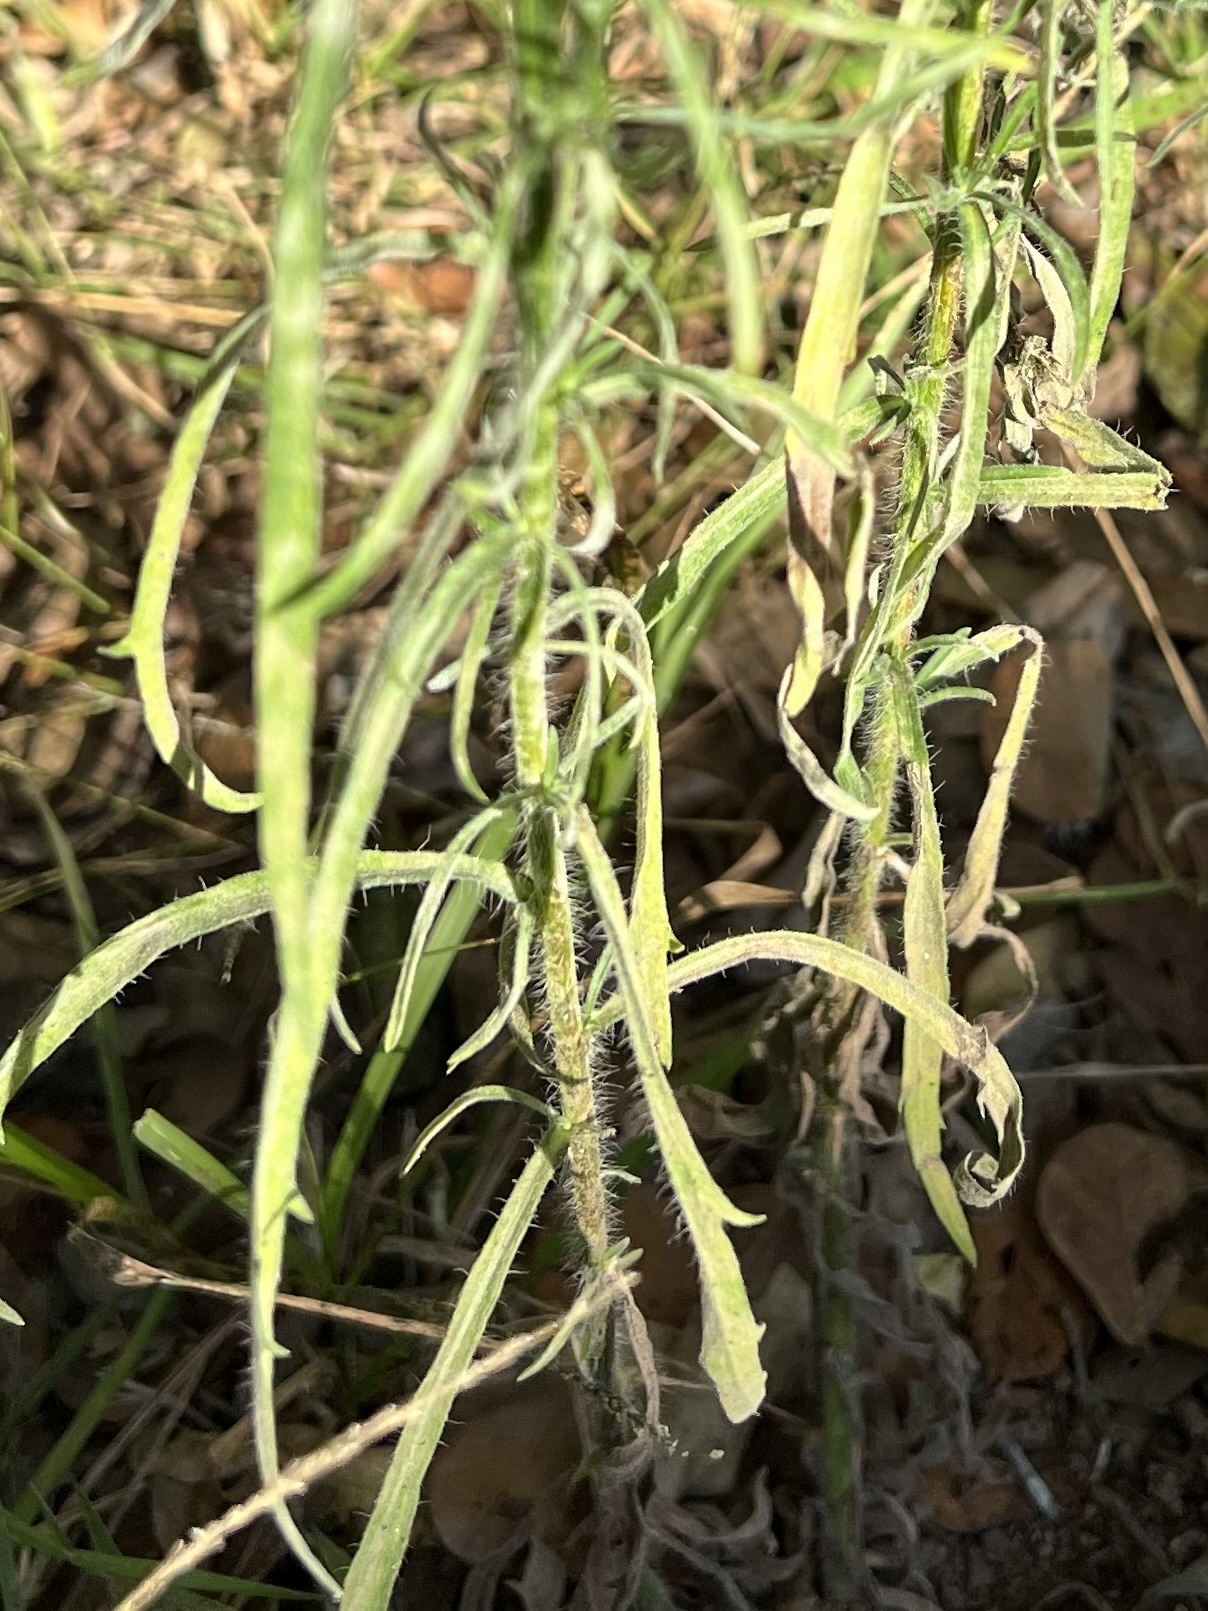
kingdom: Plantae
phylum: Tracheophyta
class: Magnoliopsida
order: Asterales
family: Asteraceae
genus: Erigeron
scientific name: Erigeron bonariensis
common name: Argentine fleabane
